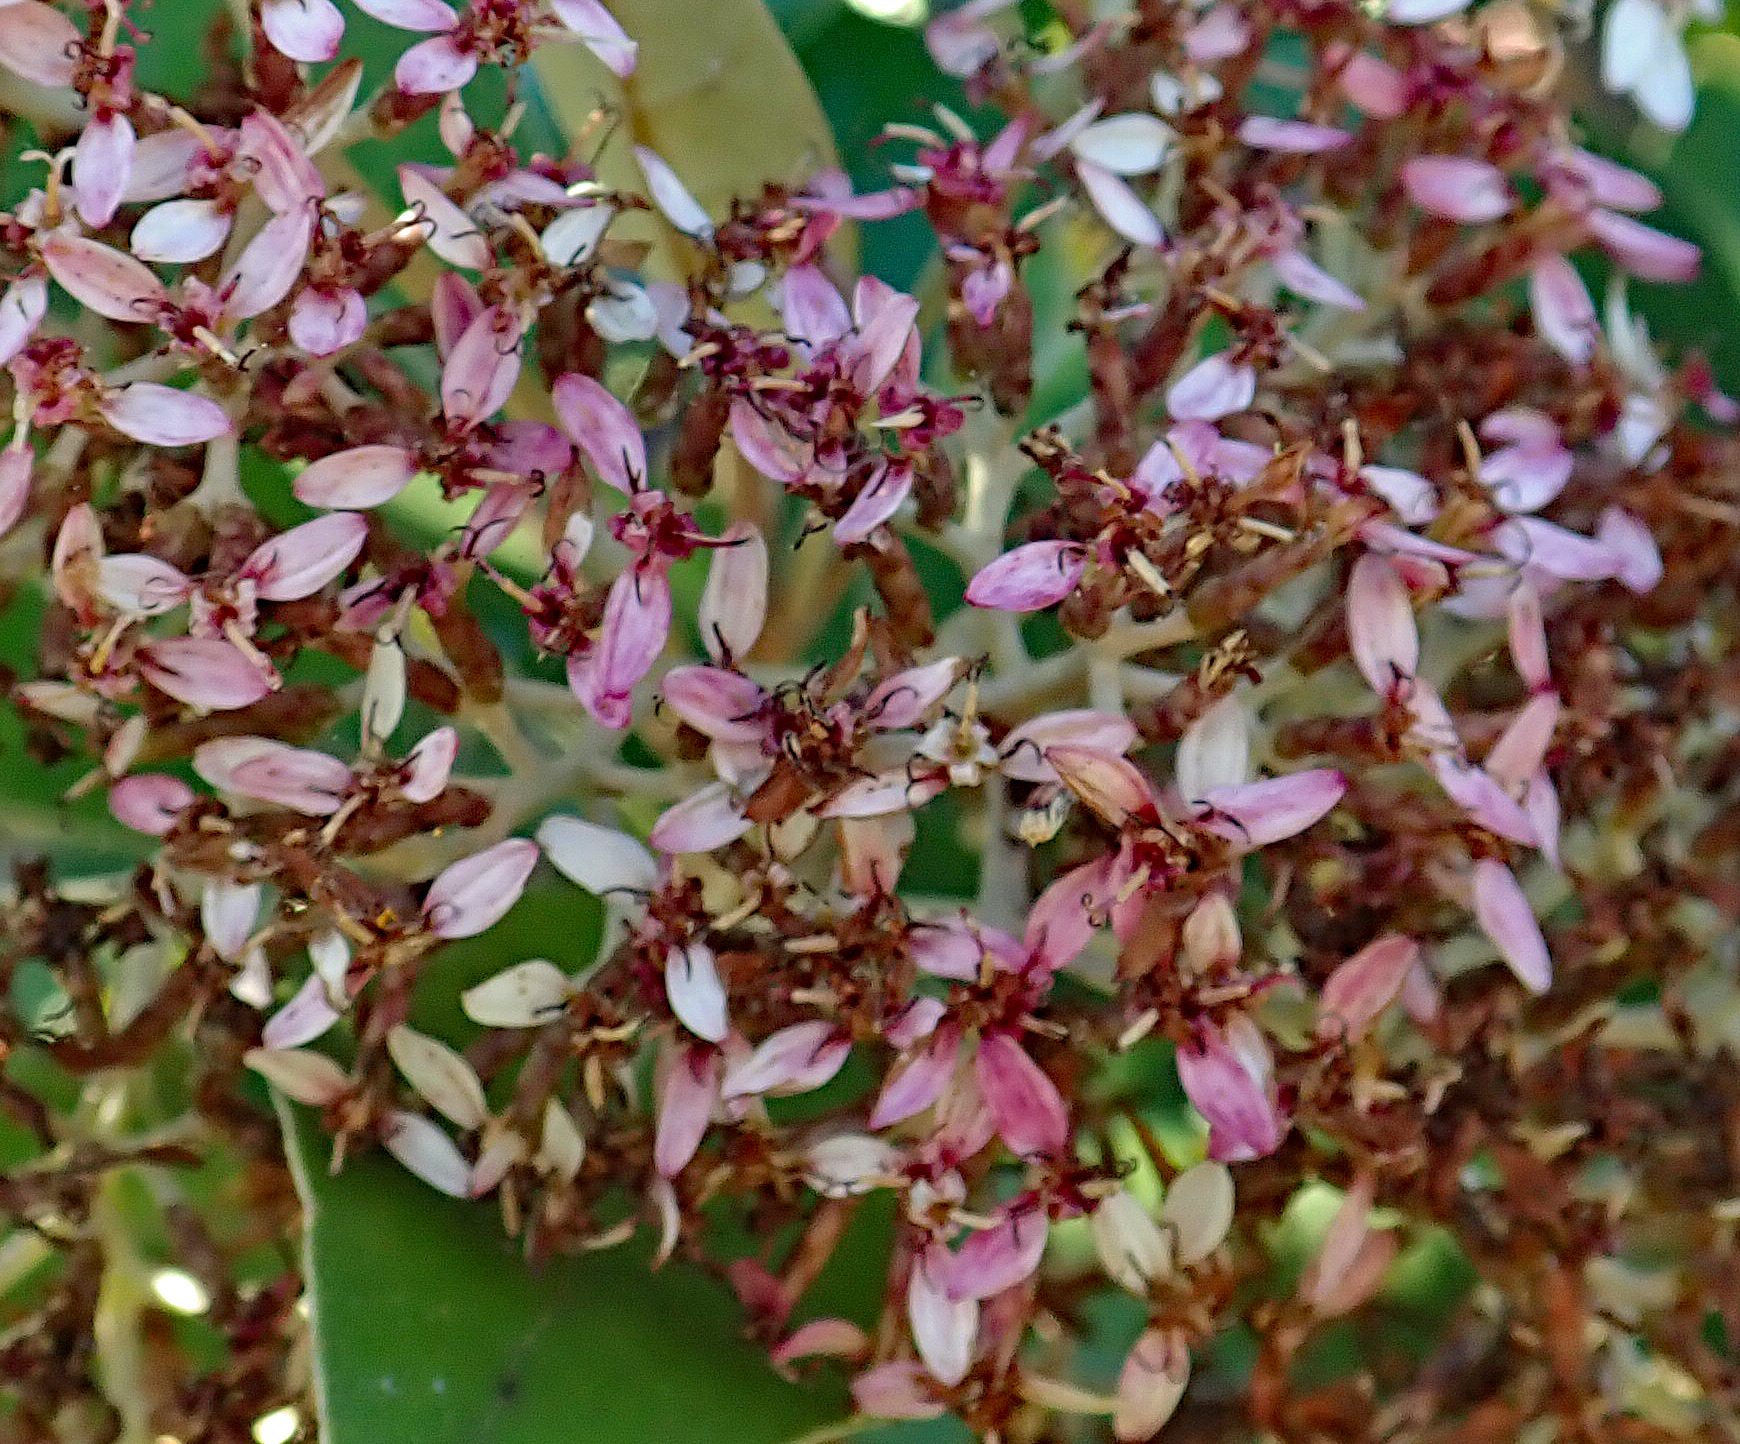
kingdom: Plantae
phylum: Tracheophyta
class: Magnoliopsida
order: Asterales
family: Asteraceae
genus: Olearia
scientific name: Olearia avicenniifolia
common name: Mangrove-leaf daisybush
